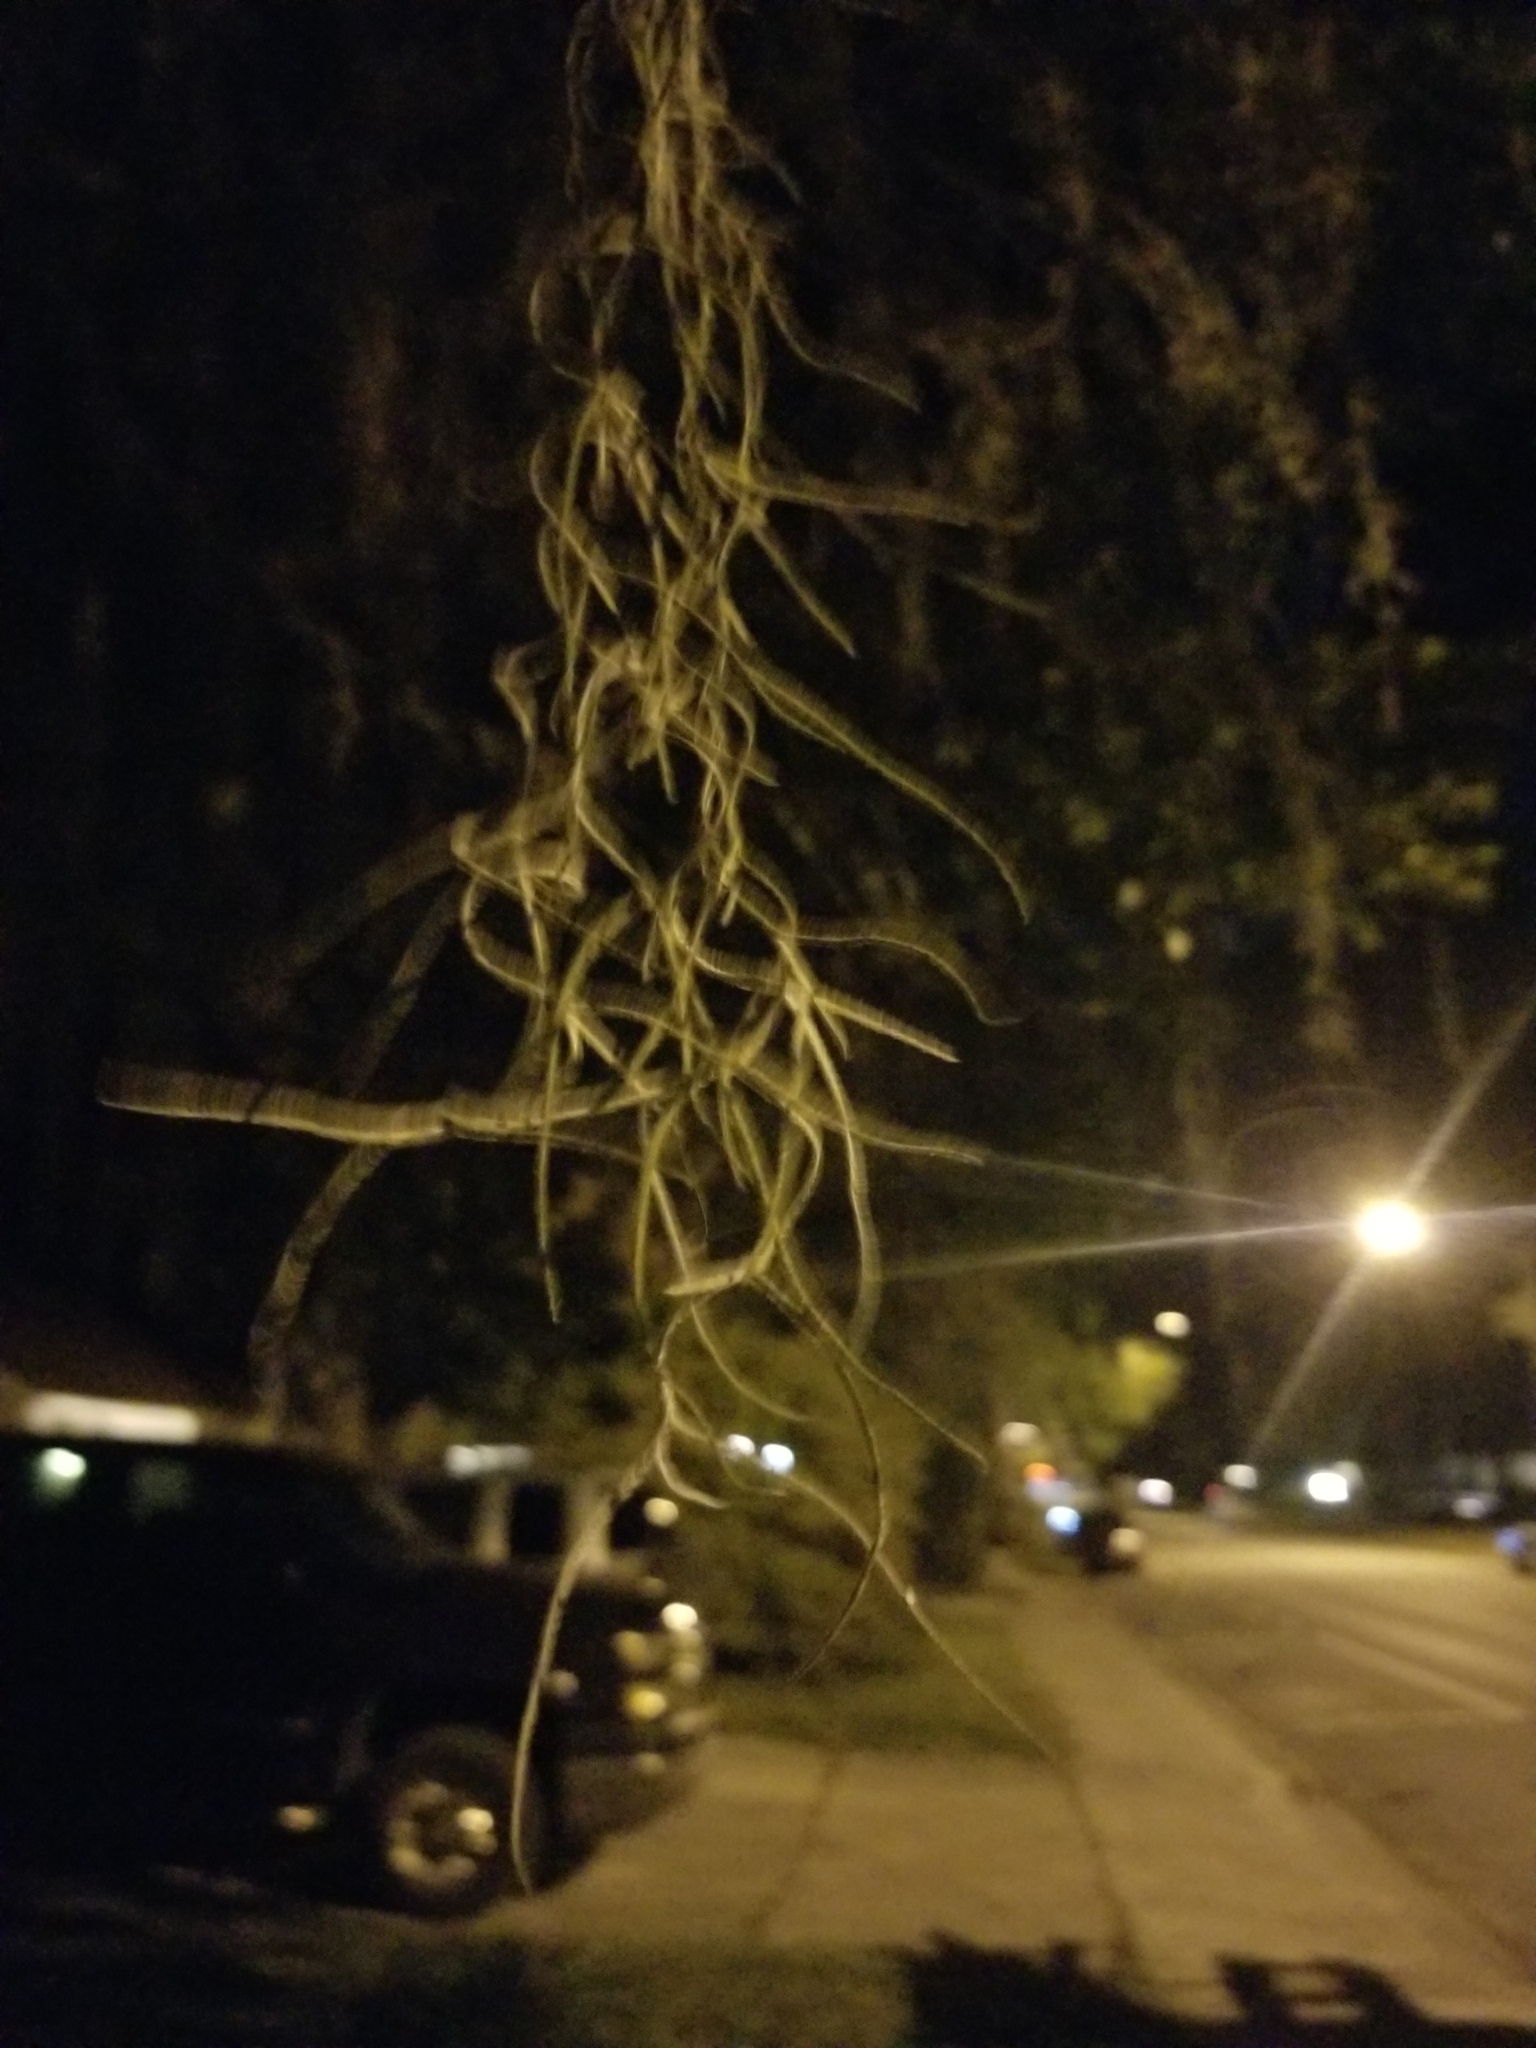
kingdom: Plantae
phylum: Tracheophyta
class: Liliopsida
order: Poales
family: Bromeliaceae
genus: Tillandsia
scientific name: Tillandsia usneoides
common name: Spanish moss
